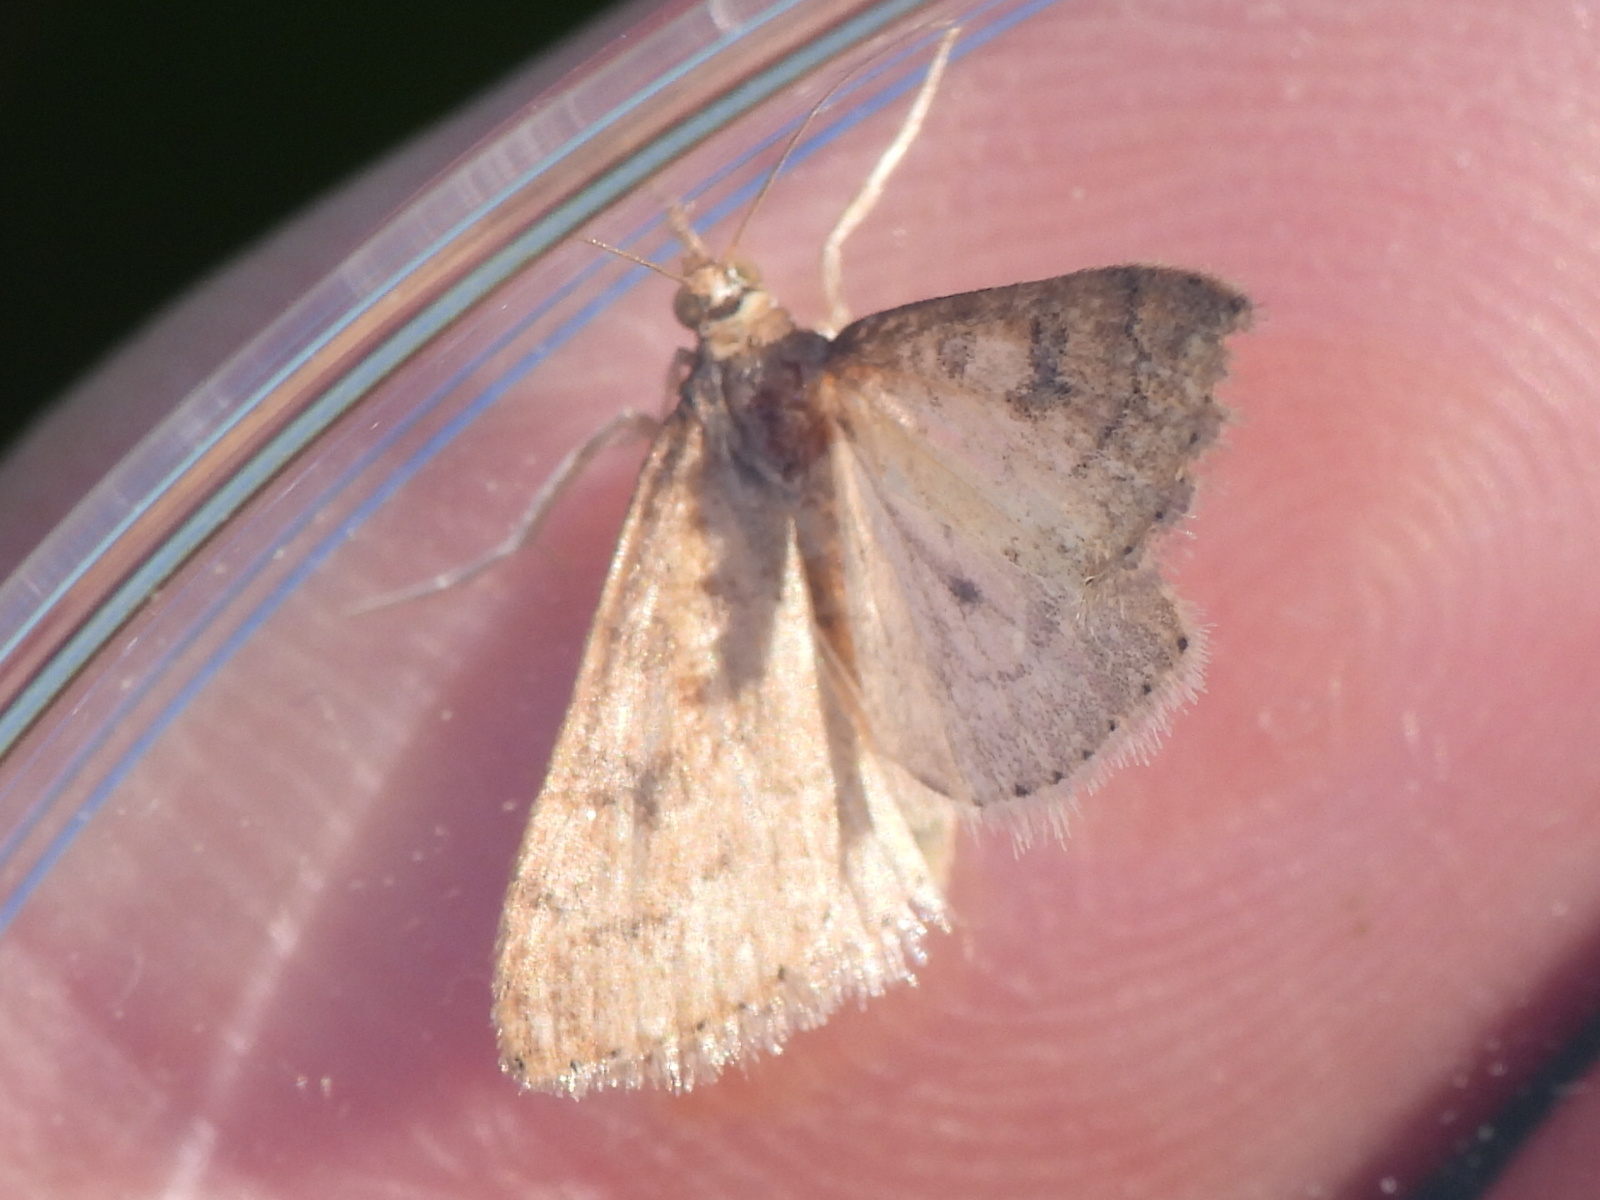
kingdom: Animalia
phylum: Arthropoda
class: Insecta
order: Lepidoptera
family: Crambidae
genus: Udea
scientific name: Udea rubigalis
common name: Celery leaftier moth
